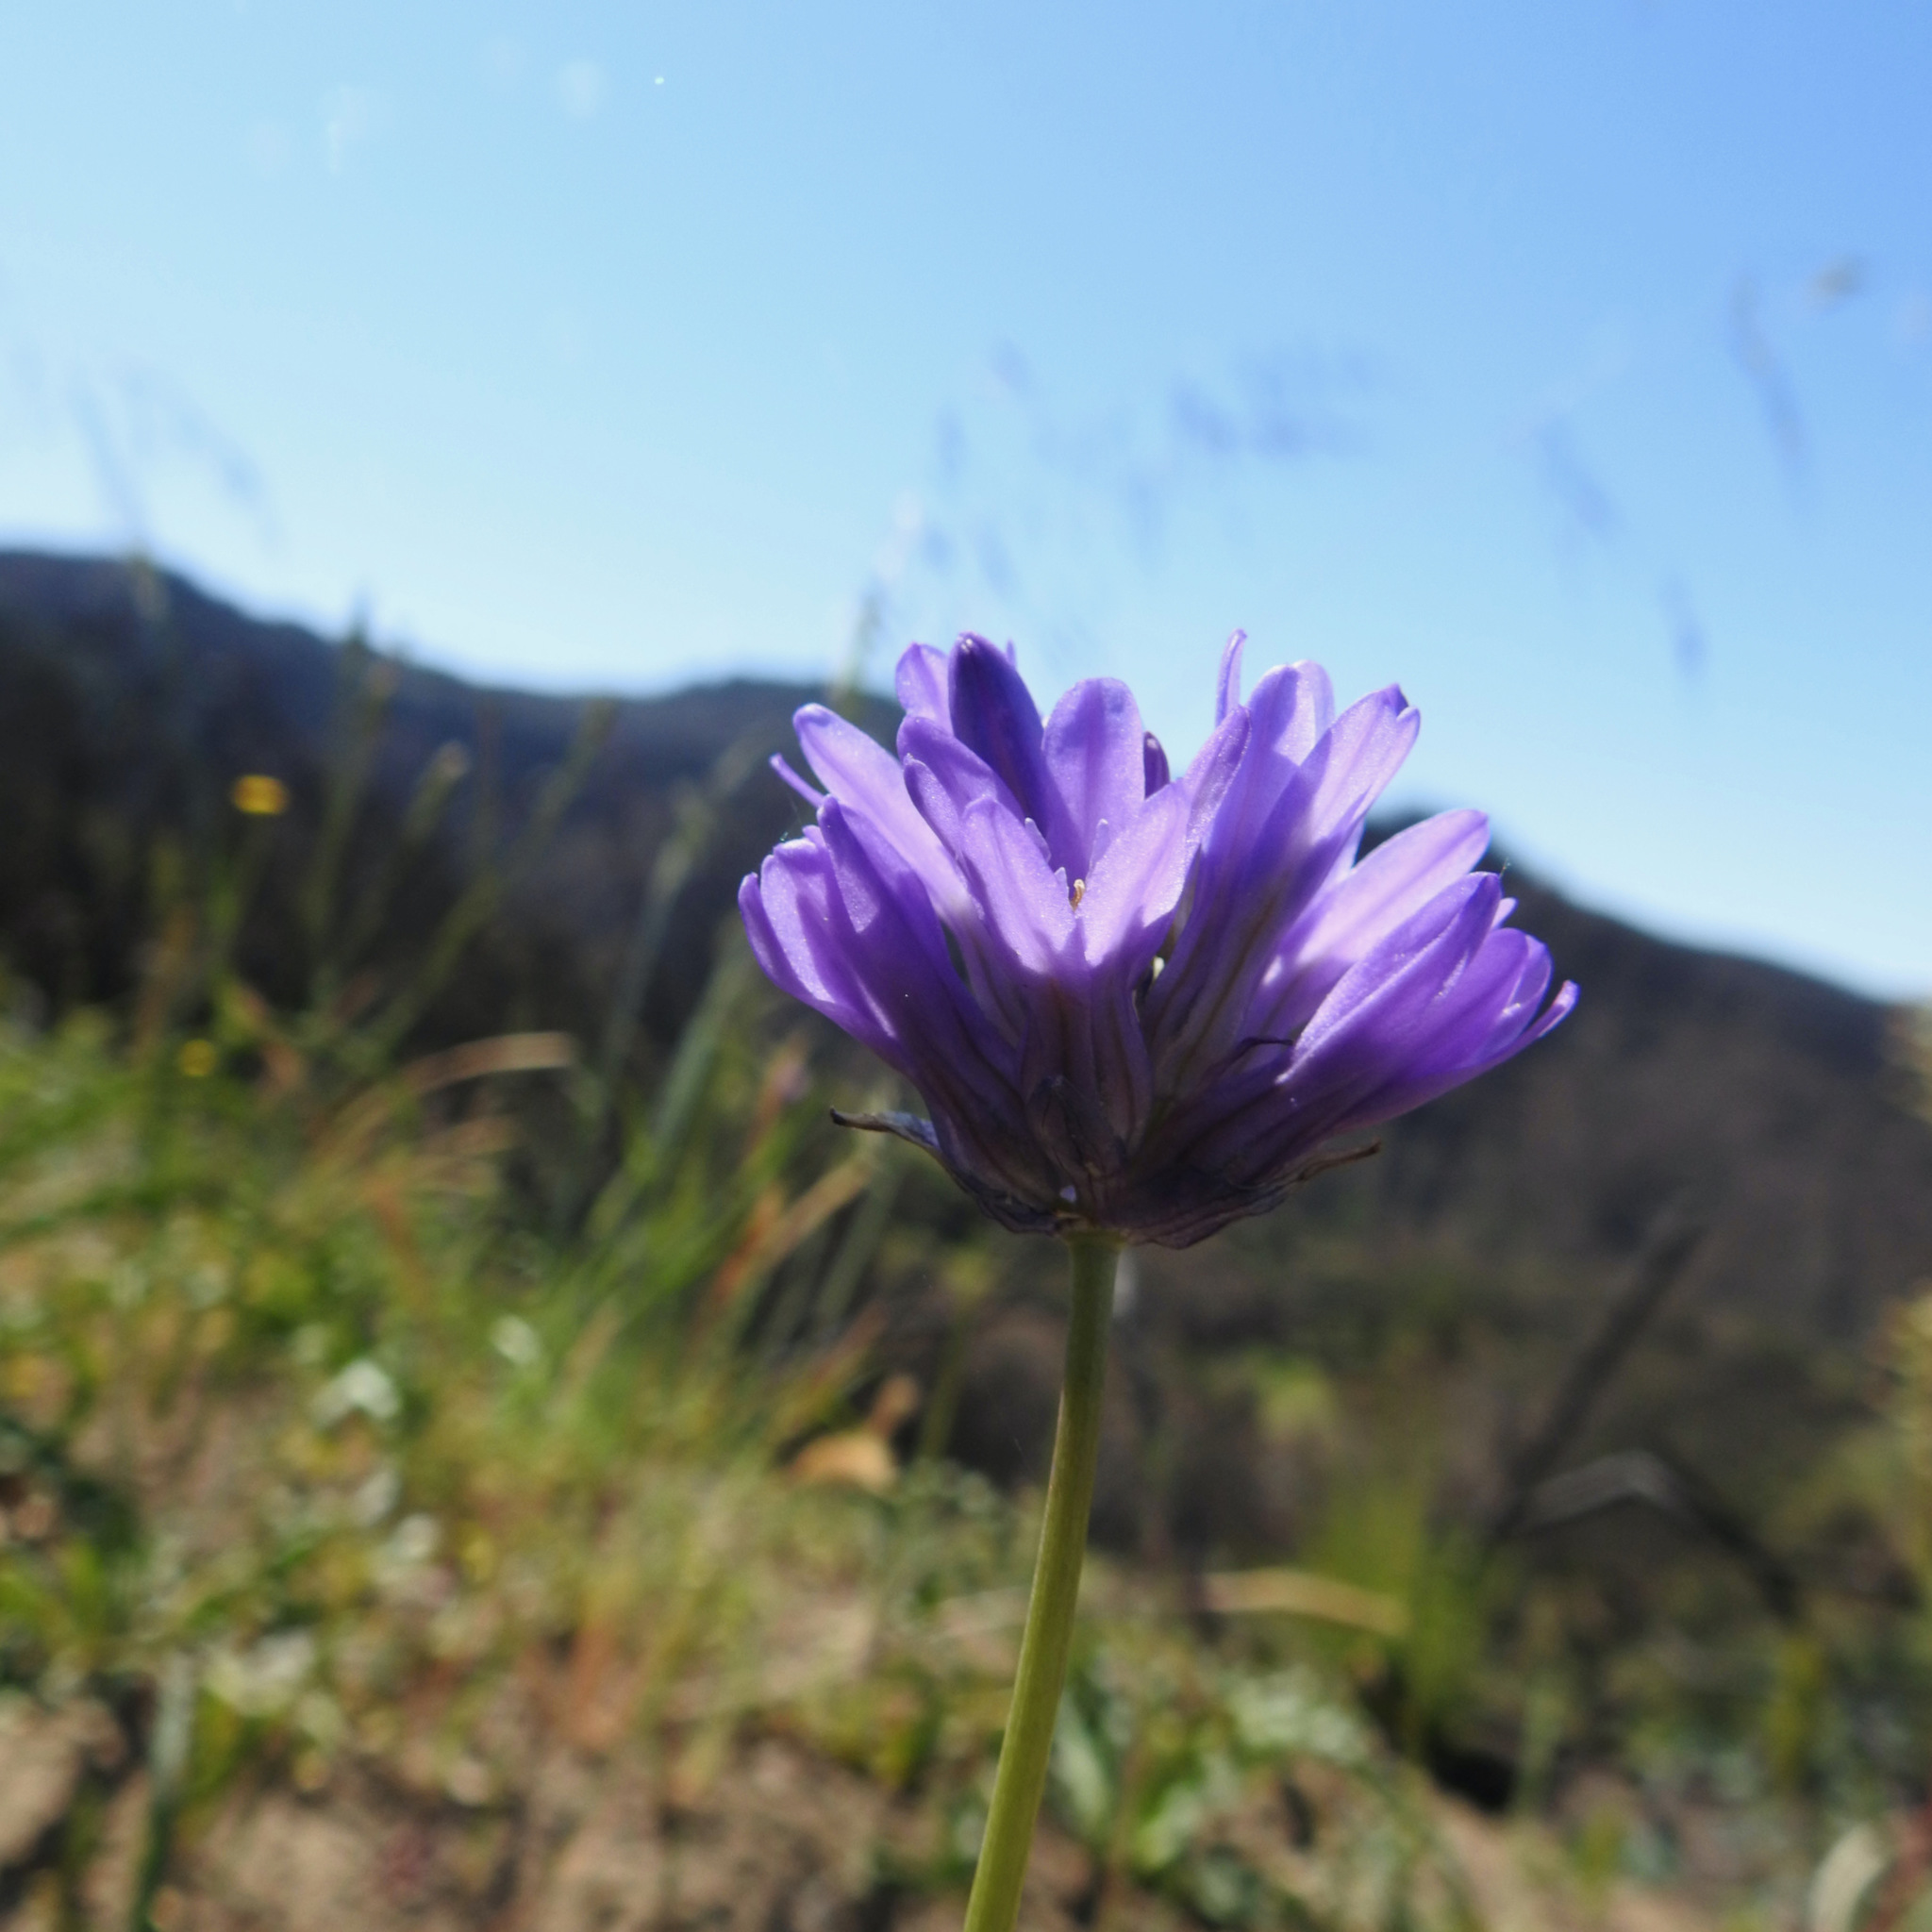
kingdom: Plantae
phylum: Tracheophyta
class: Liliopsida
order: Asparagales
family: Asparagaceae
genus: Dichelostemma
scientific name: Dichelostemma congestum
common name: Fork-tooth ookow
